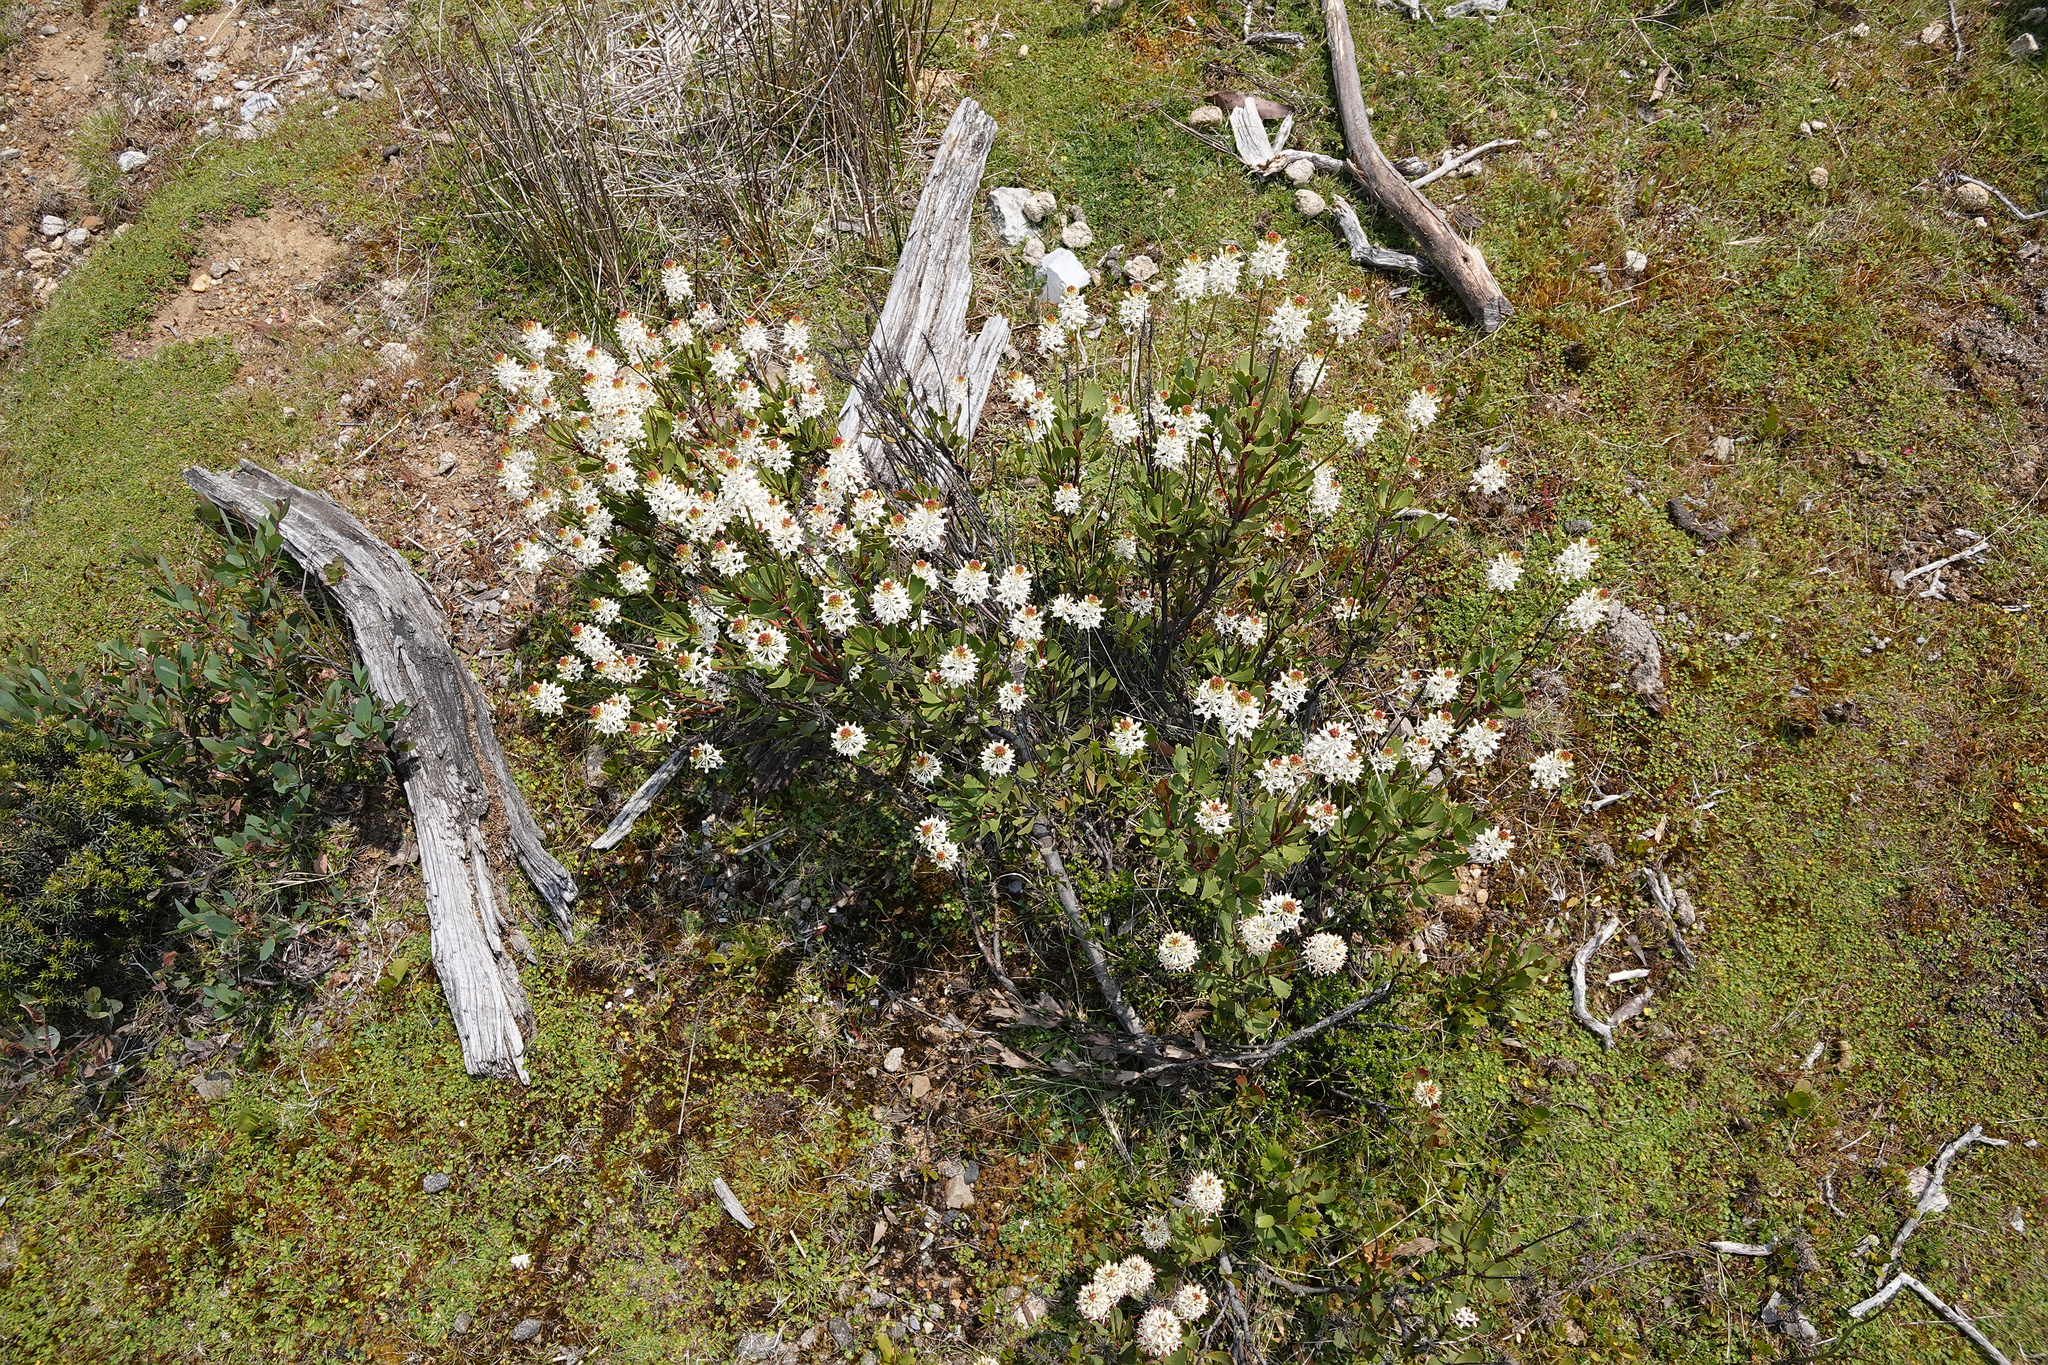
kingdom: Plantae
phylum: Tracheophyta
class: Magnoliopsida
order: Proteales
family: Proteaceae
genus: Bellendena
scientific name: Bellendena montana
